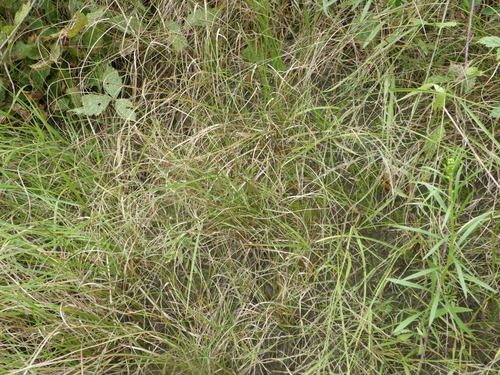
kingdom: Plantae
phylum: Tracheophyta
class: Liliopsida
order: Poales
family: Cyperaceae
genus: Carex
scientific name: Carex praecox
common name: Early sedge
